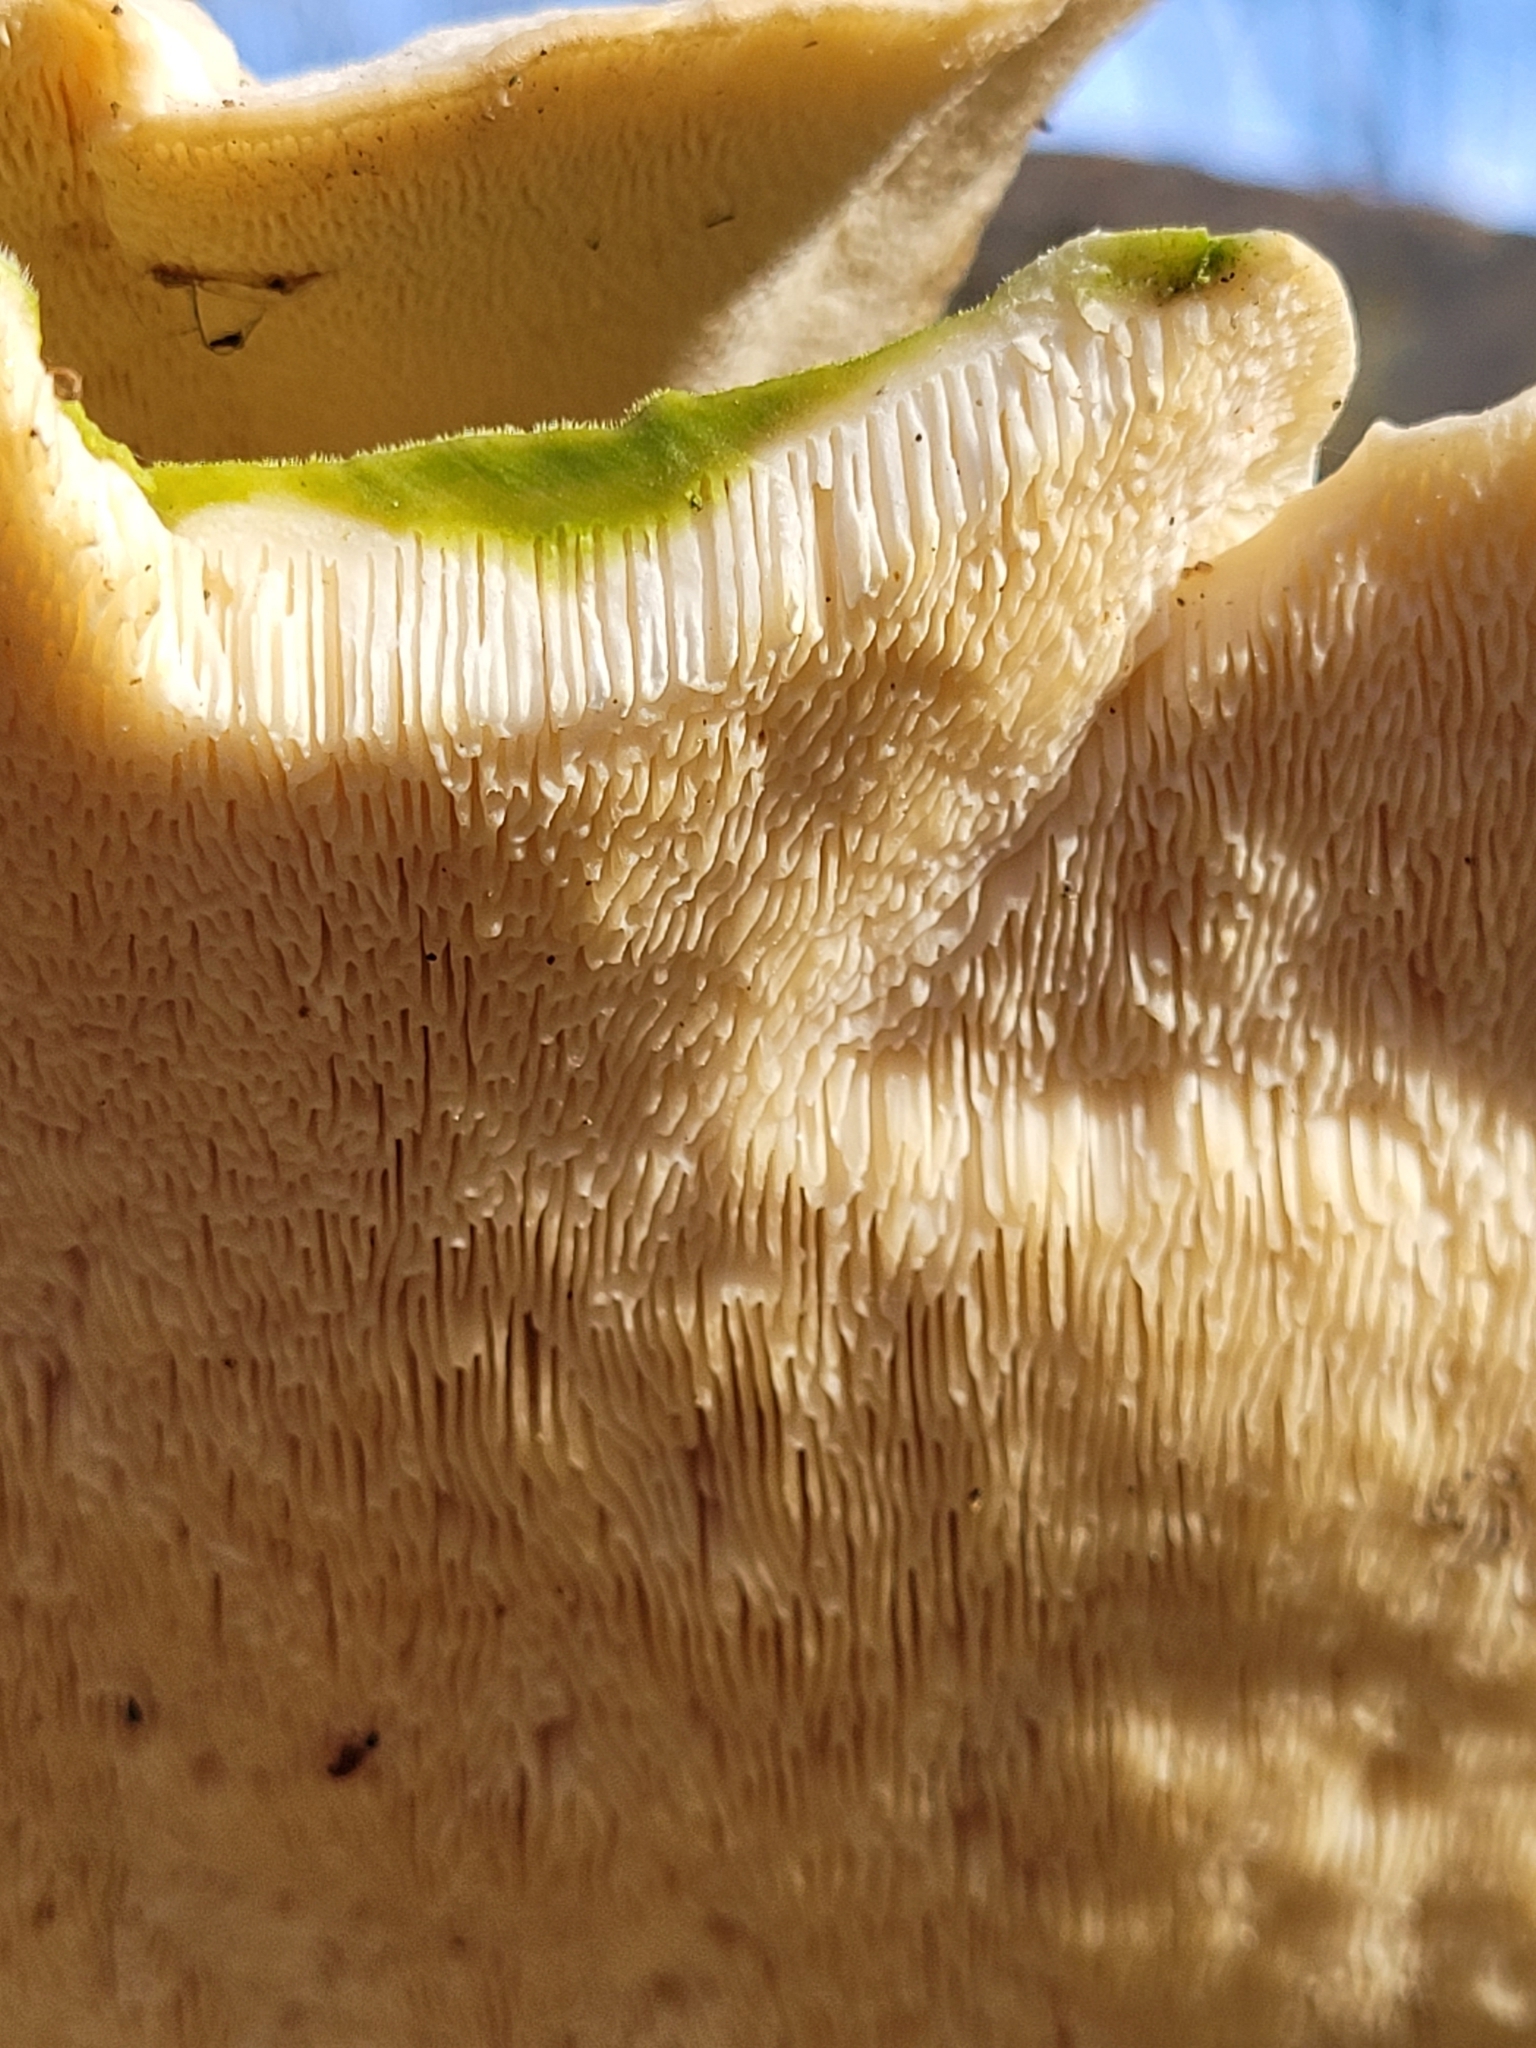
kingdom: Fungi
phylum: Basidiomycota
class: Agaricomycetes
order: Polyporales
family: Polyporaceae
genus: Trametes
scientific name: Trametes gibbosa
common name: Lumpy bracket
